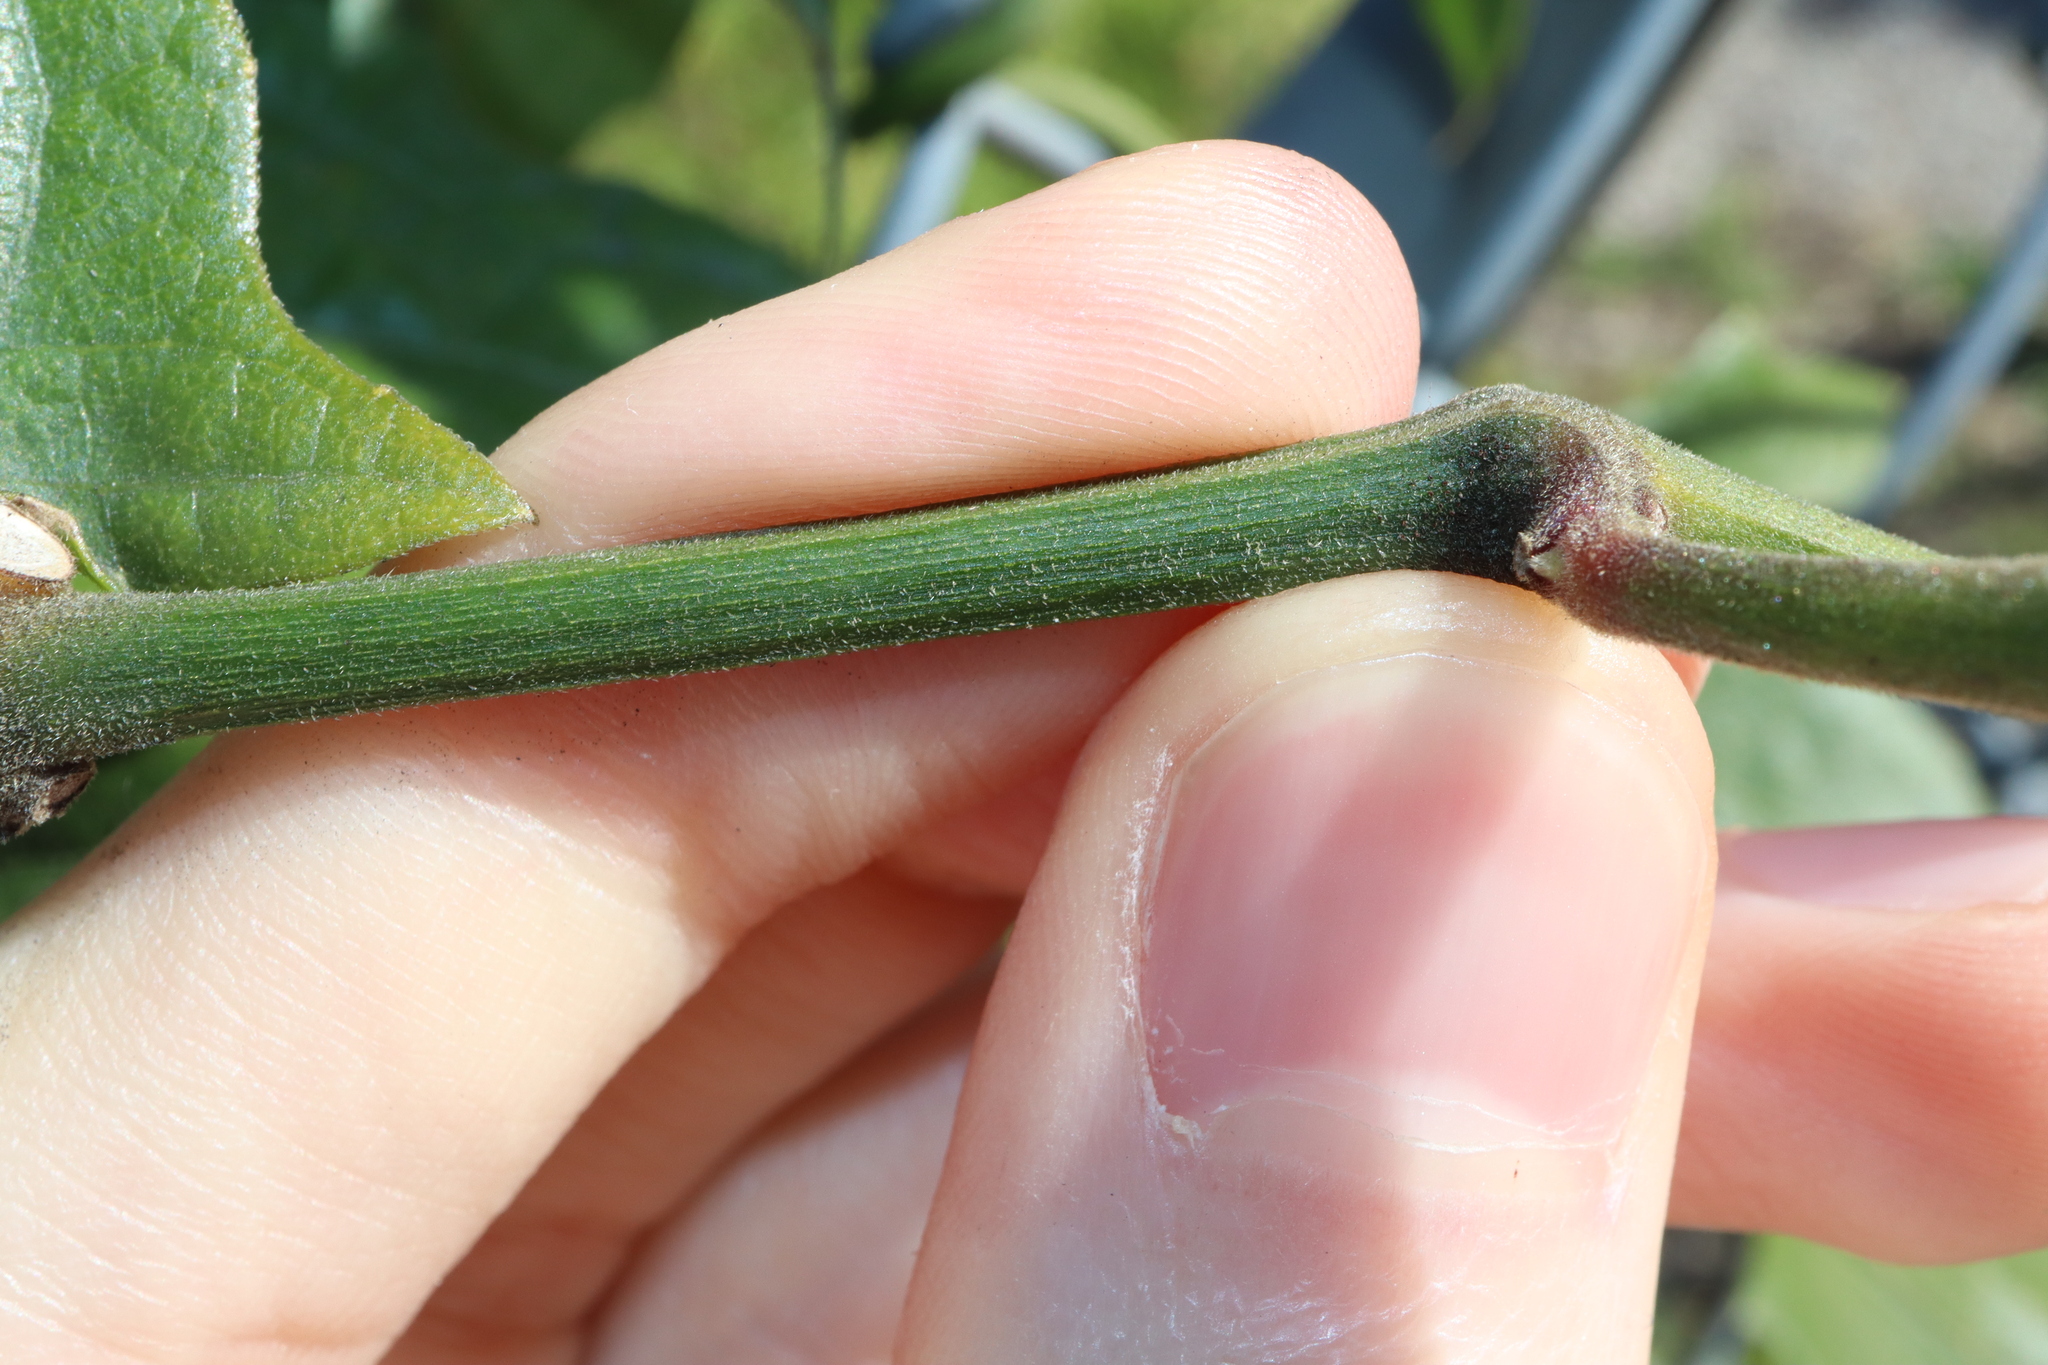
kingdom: Plantae
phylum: Tracheophyta
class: Magnoliopsida
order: Lamiales
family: Acanthaceae
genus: Thunbergia
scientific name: Thunbergia grandiflora
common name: Bengal trumpet
